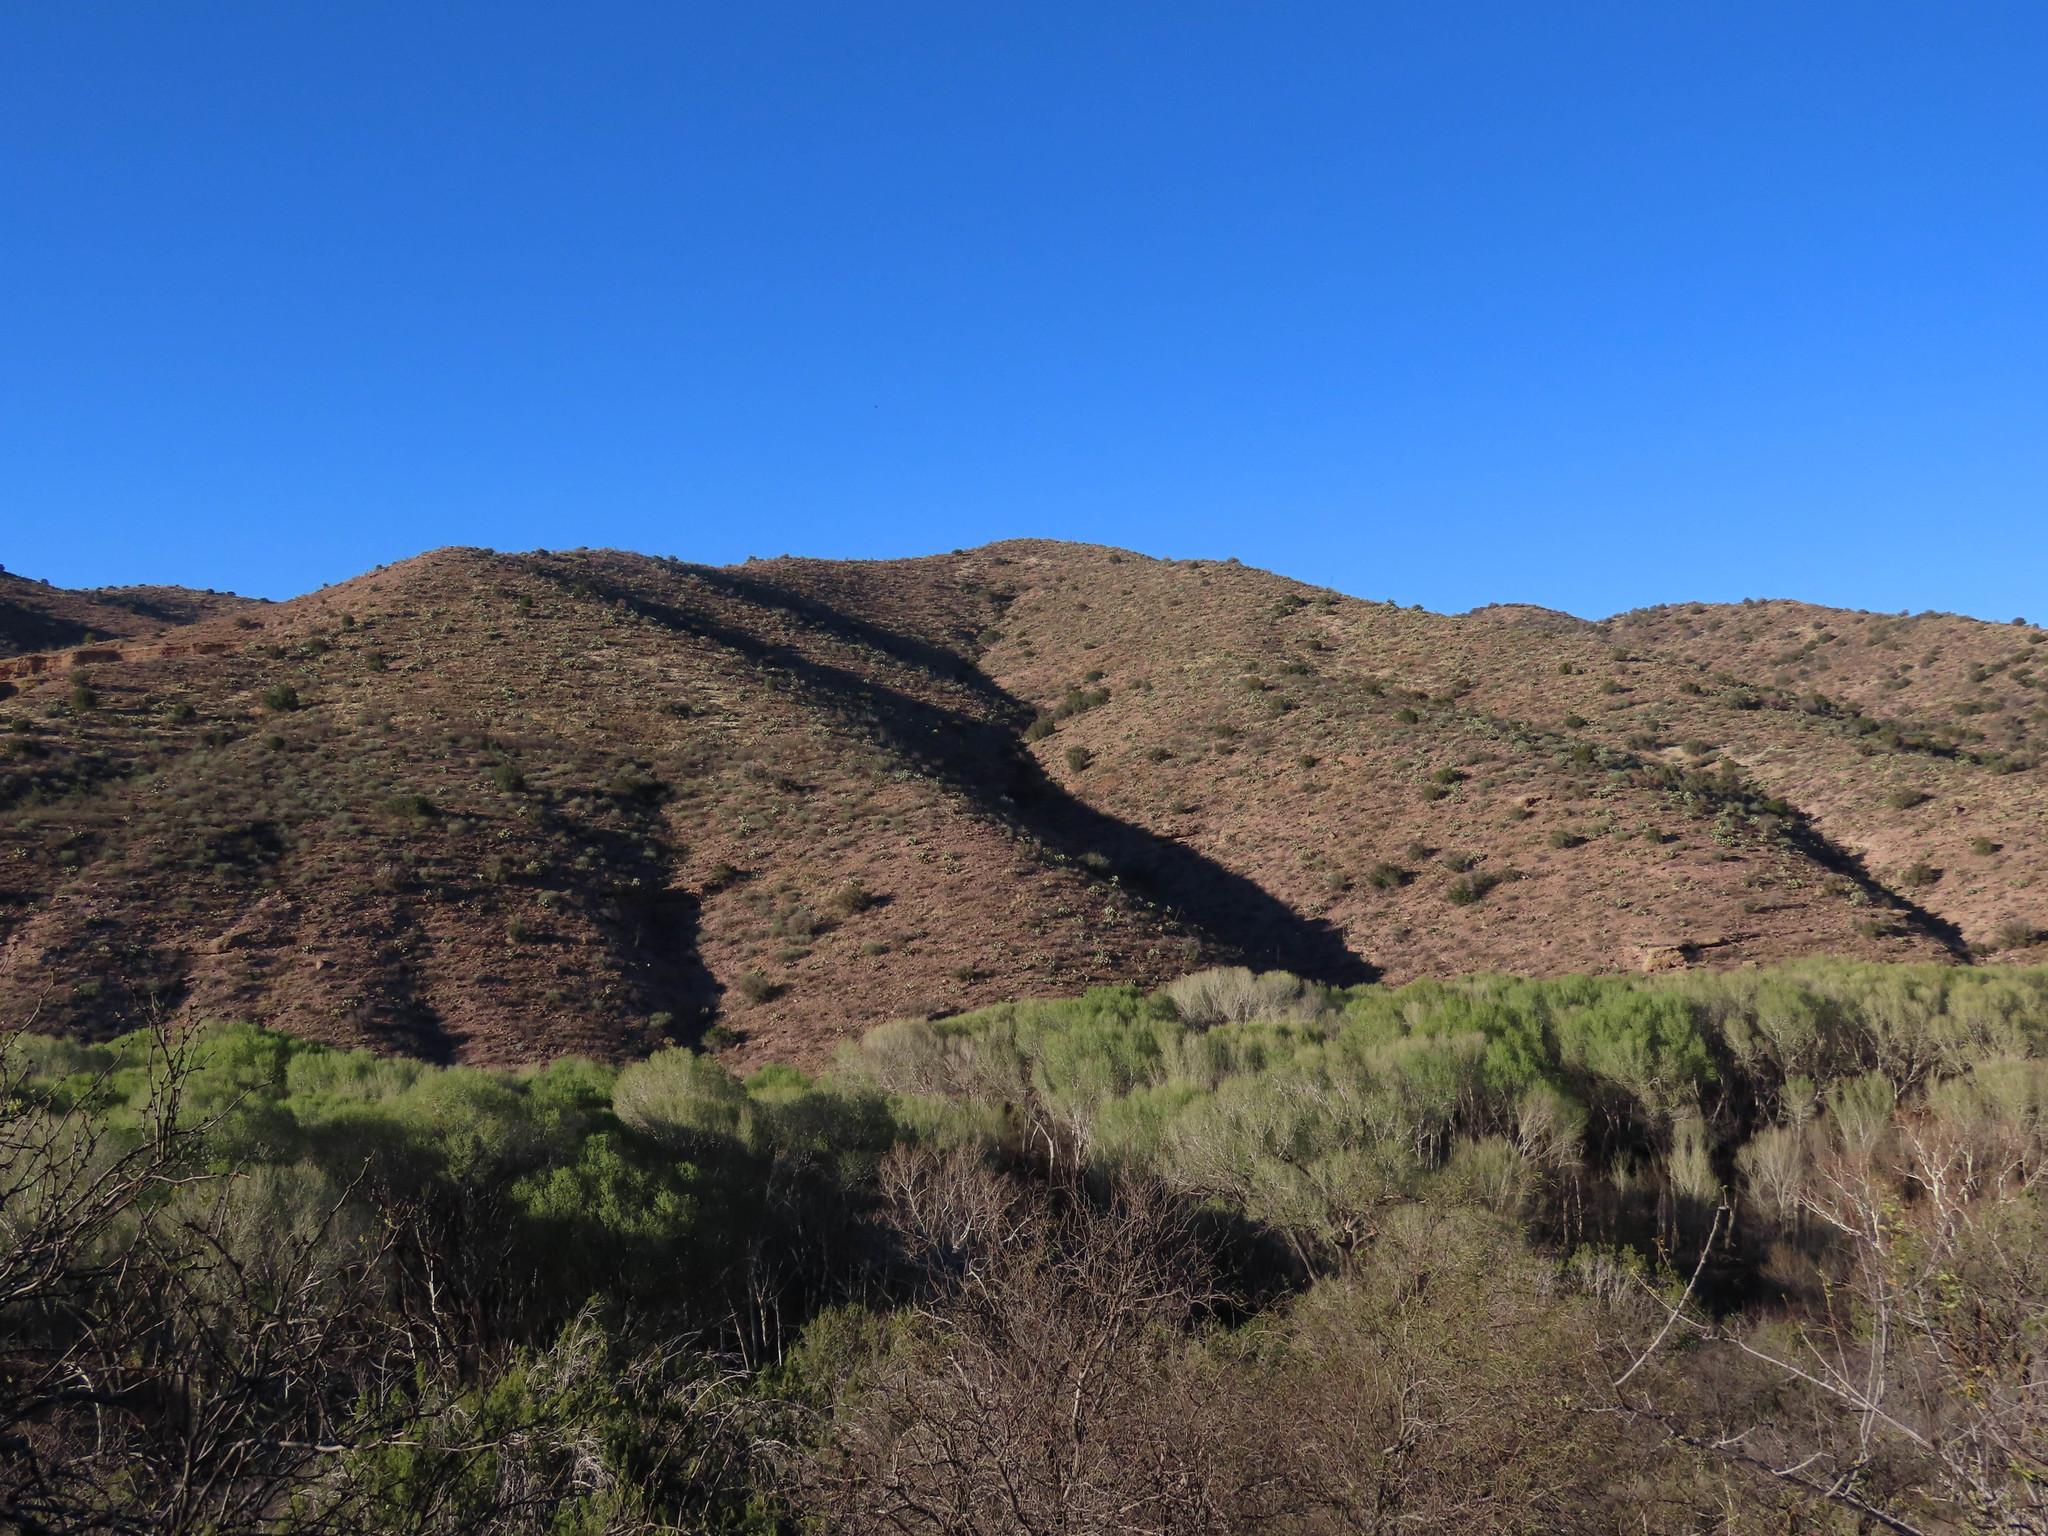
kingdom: Plantae
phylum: Tracheophyta
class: Magnoliopsida
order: Malpighiales
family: Salicaceae
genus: Populus
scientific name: Populus fremontii
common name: Fremont's cottonwood
